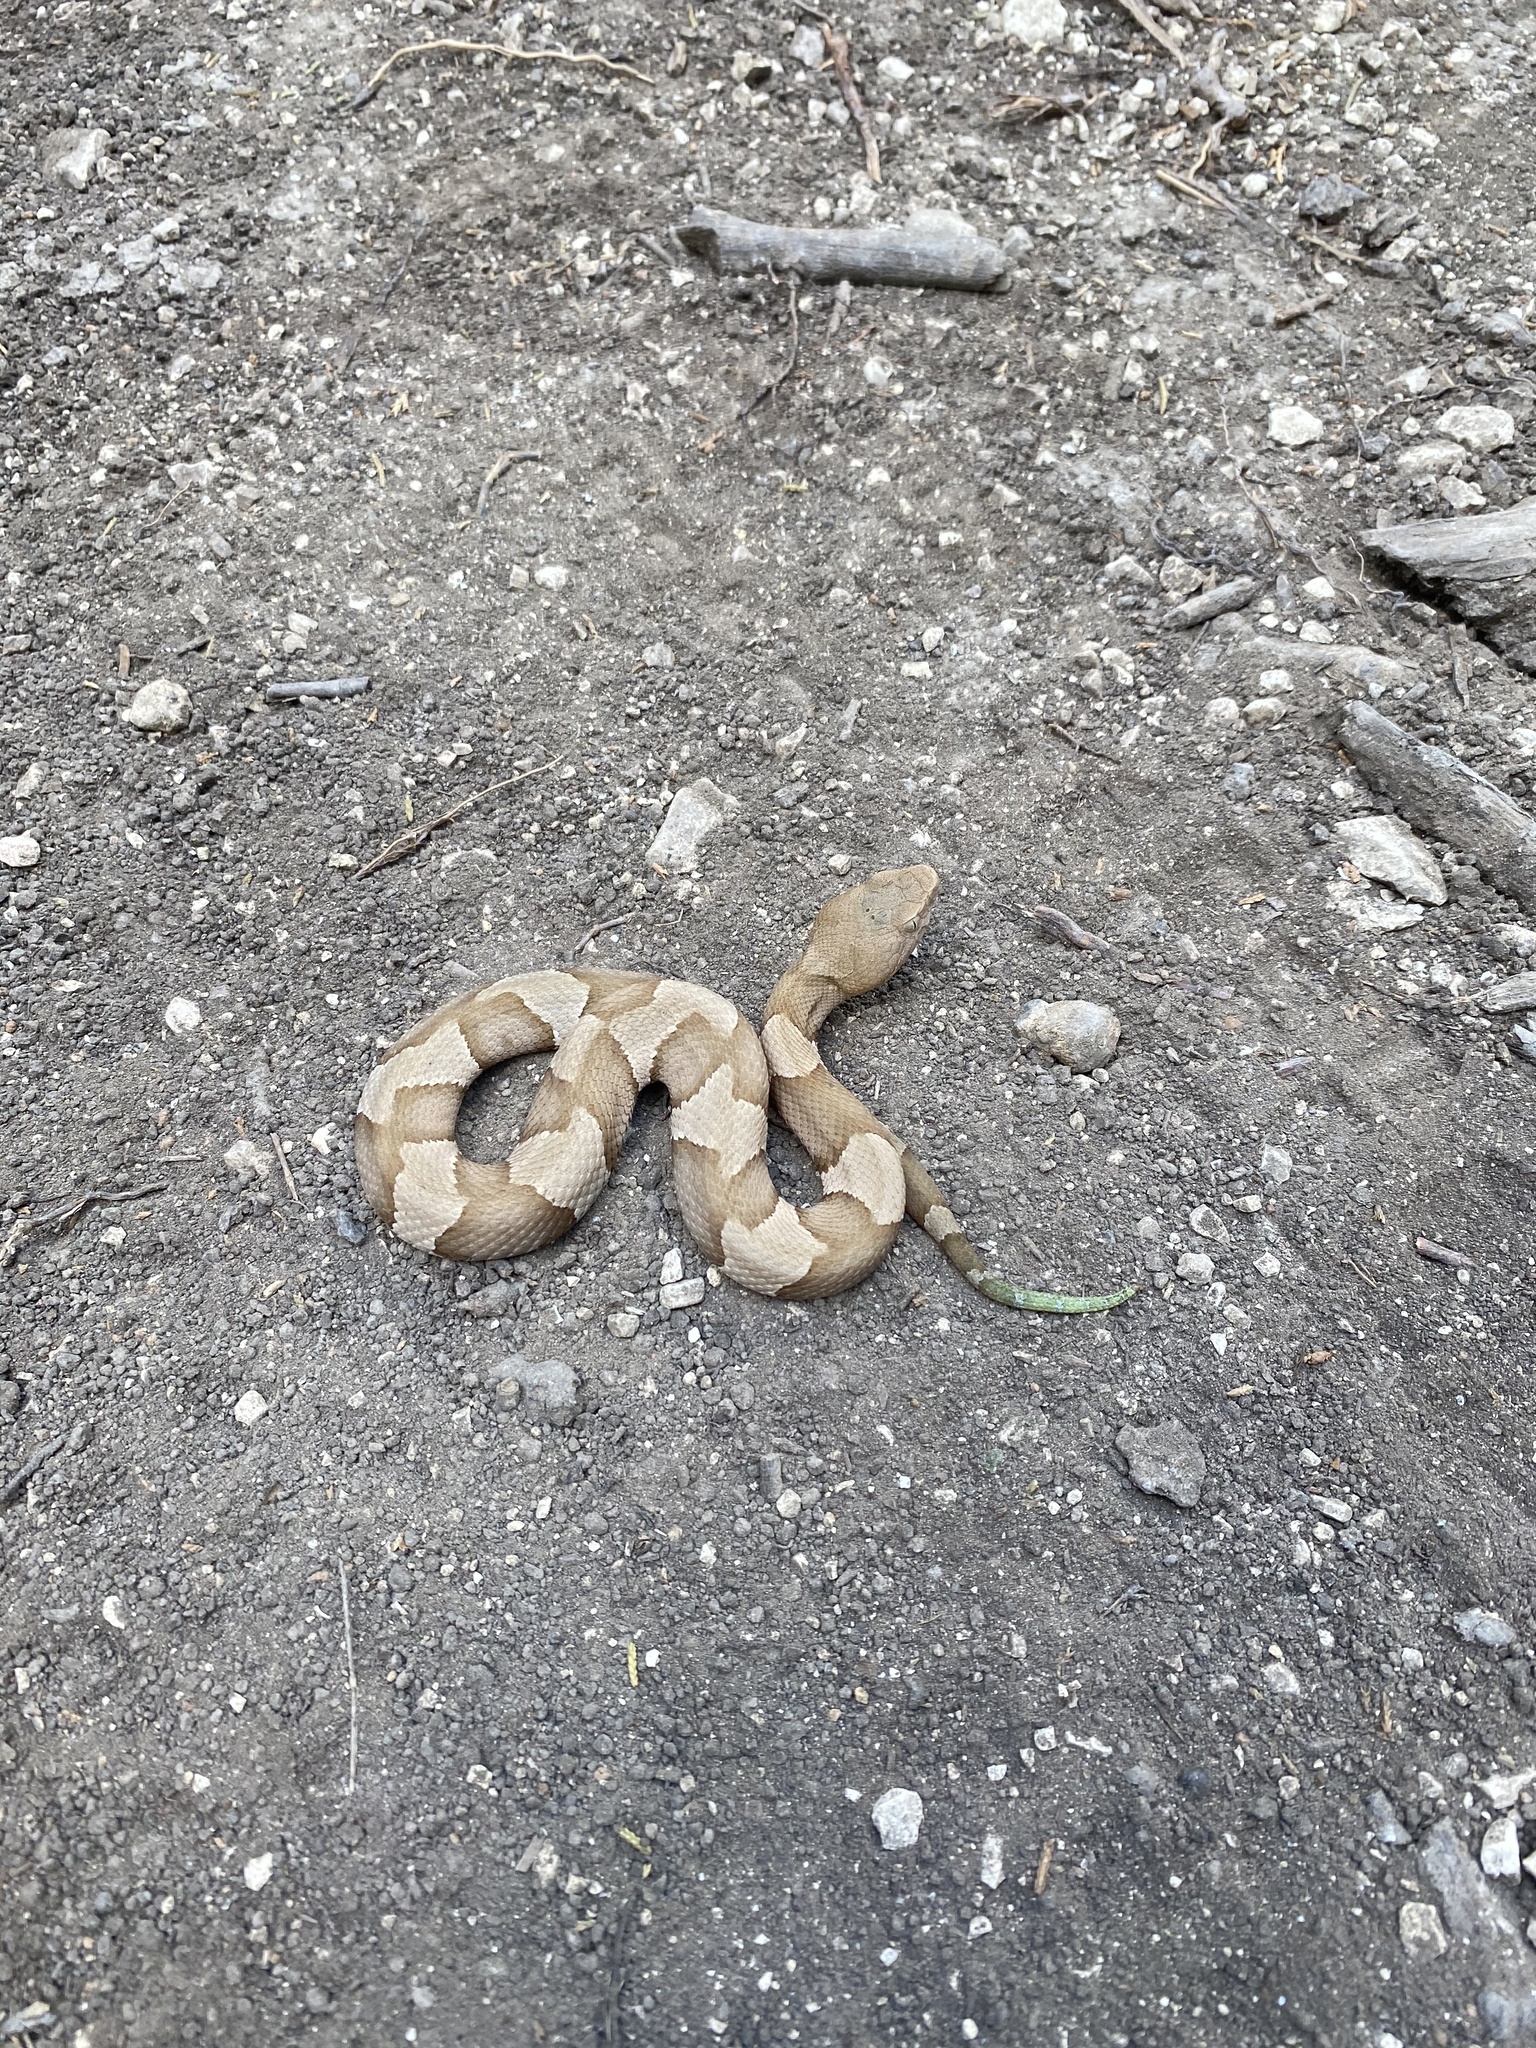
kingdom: Animalia
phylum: Chordata
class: Squamata
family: Viperidae
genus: Agkistrodon
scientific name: Agkistrodon laticinctus
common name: Broad-banded copperhead
